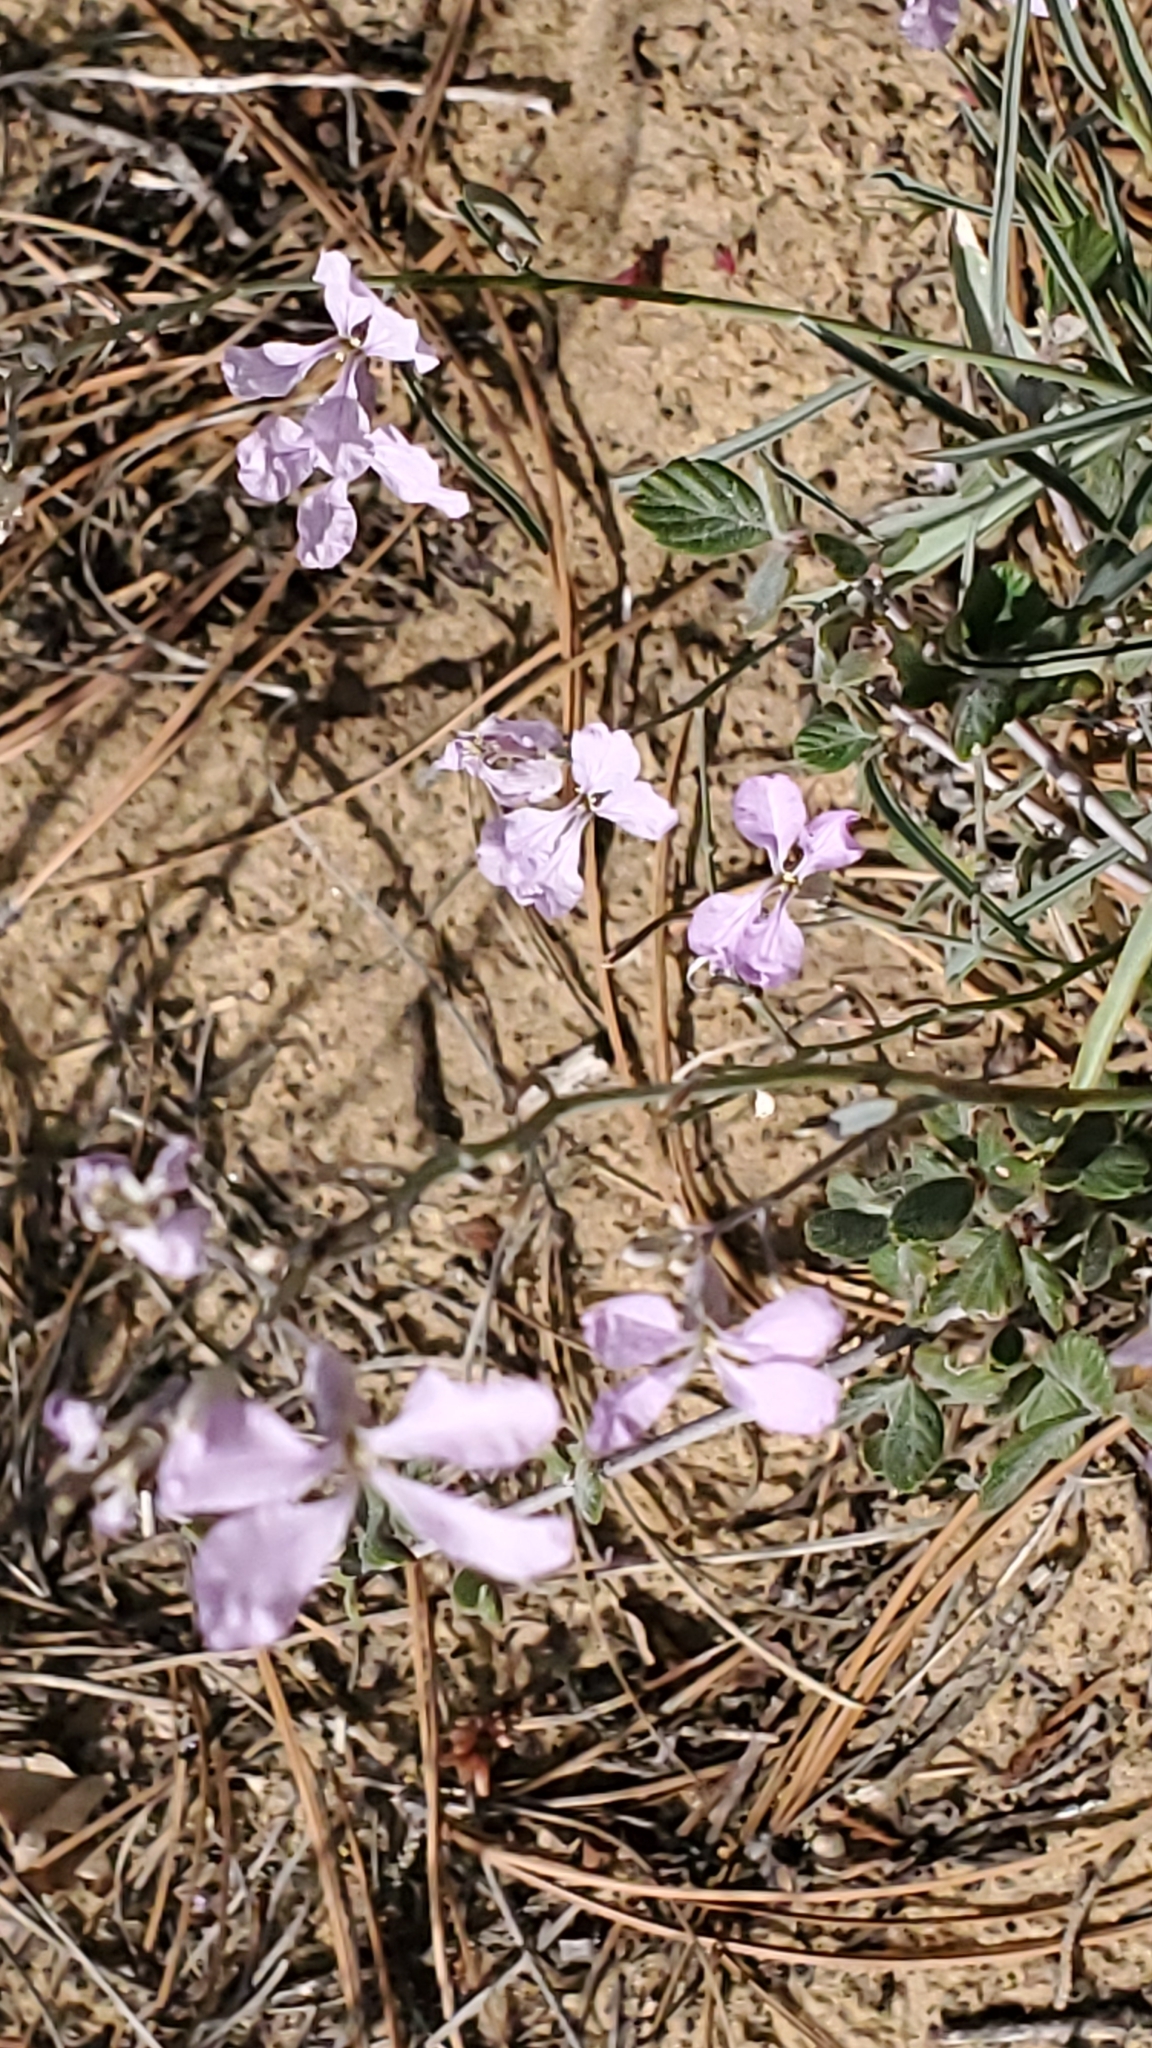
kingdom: Plantae
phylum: Tracheophyta
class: Magnoliopsida
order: Brassicales
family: Brassicaceae
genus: Hesperidanthus
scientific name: Hesperidanthus linearifolius
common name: Slim-leaf plains mustard
